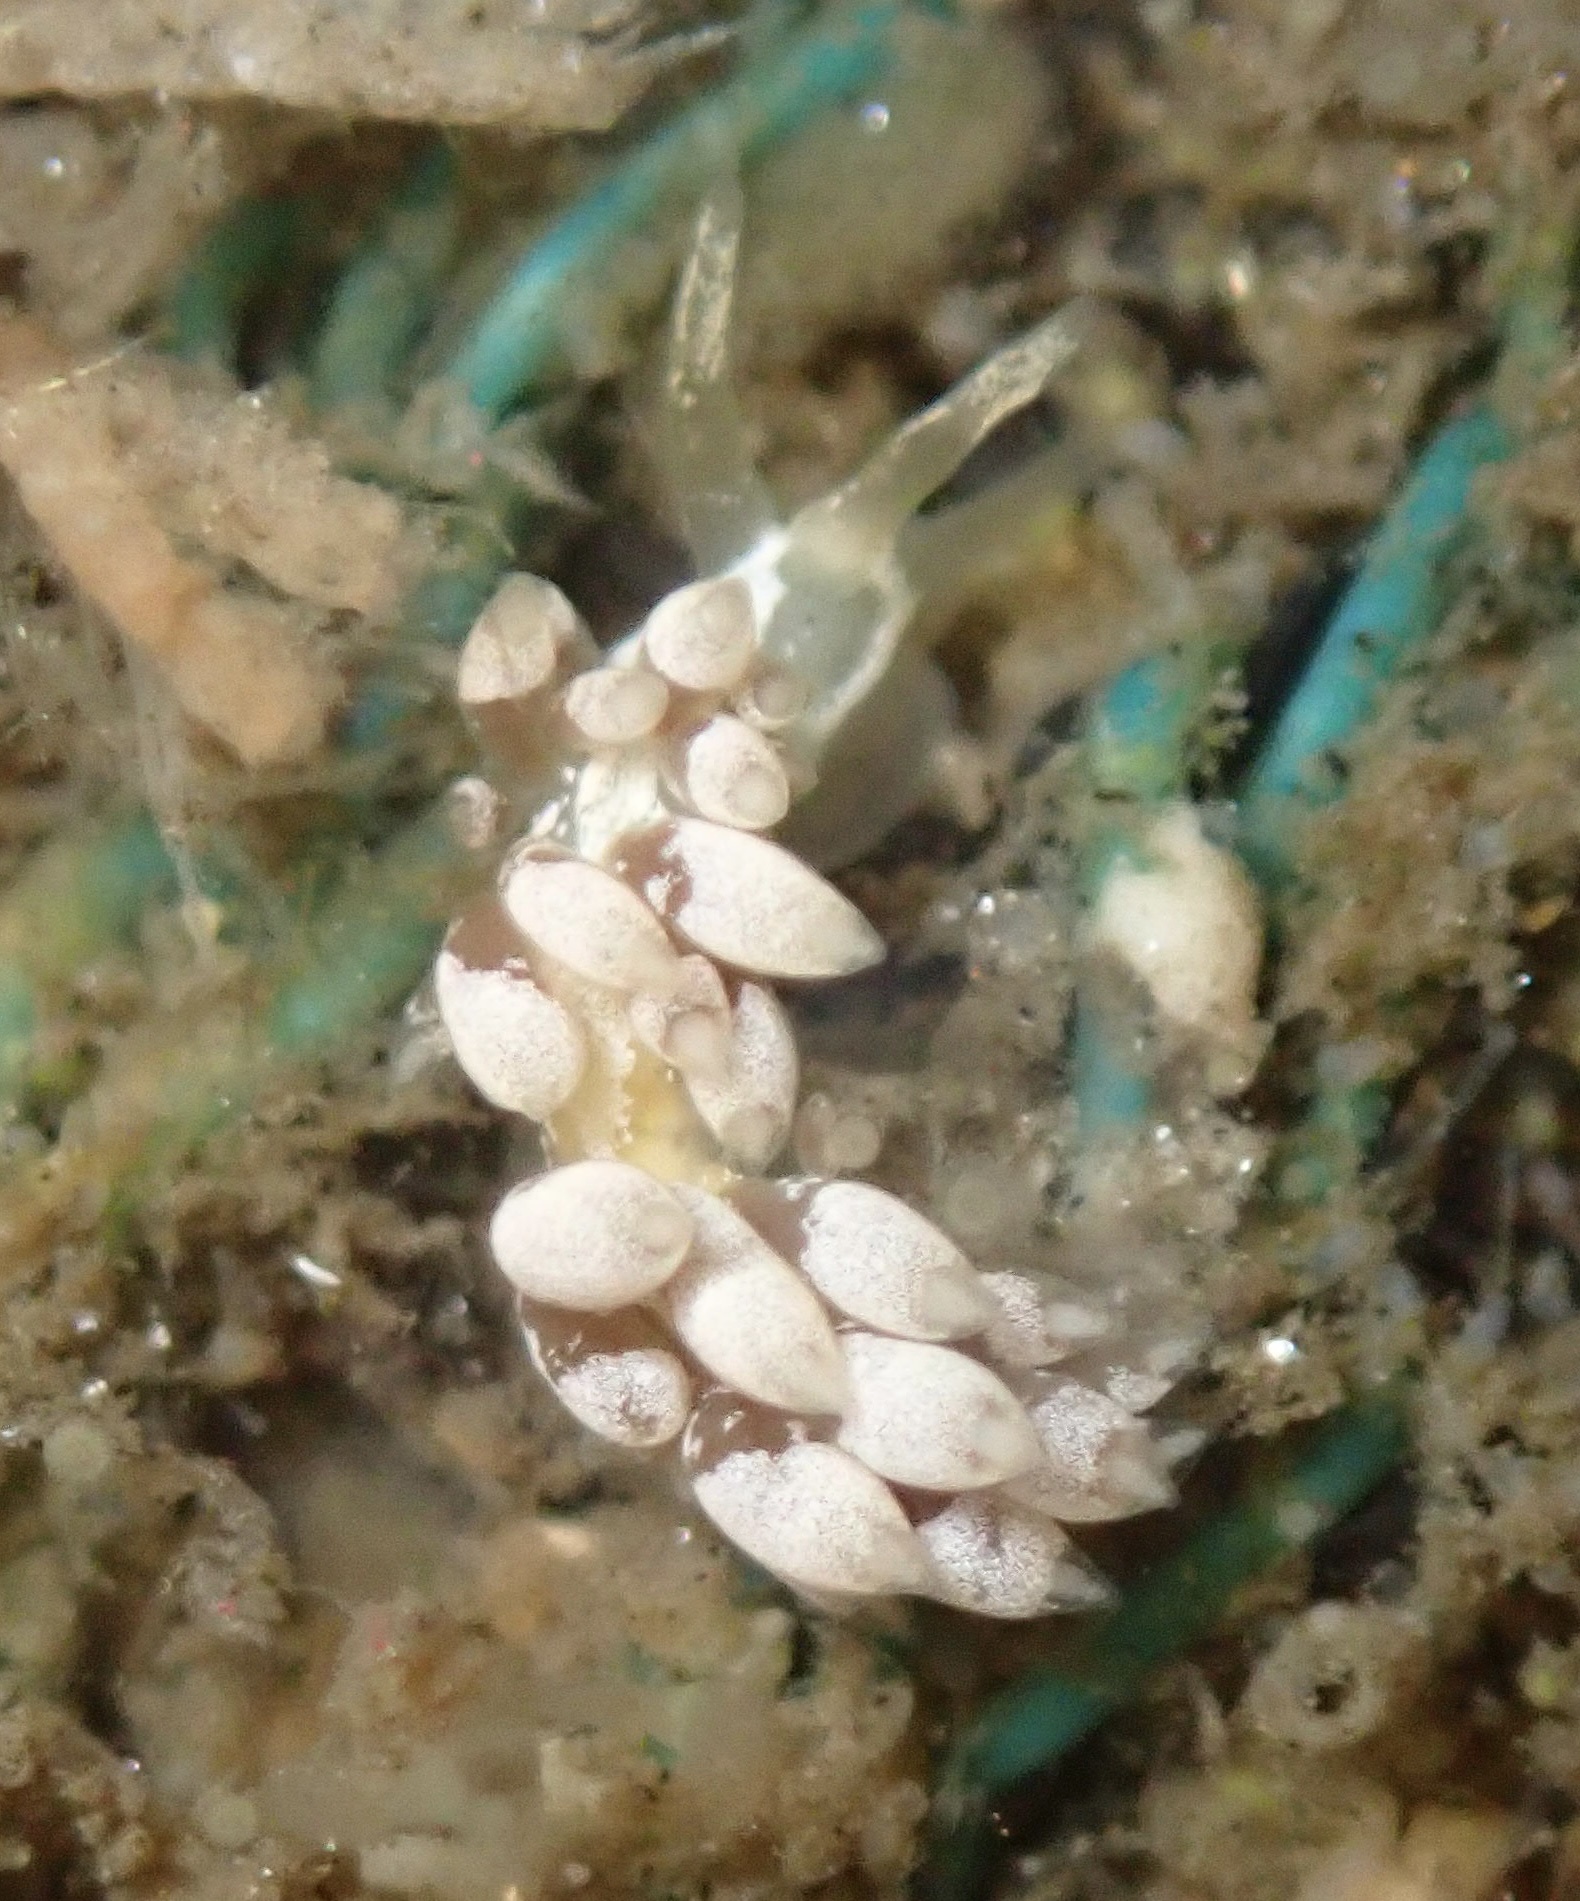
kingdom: Animalia
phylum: Mollusca
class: Gastropoda
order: Nudibranchia
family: Trinchesiidae
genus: Trinchesia
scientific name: Trinchesia albocrusta
